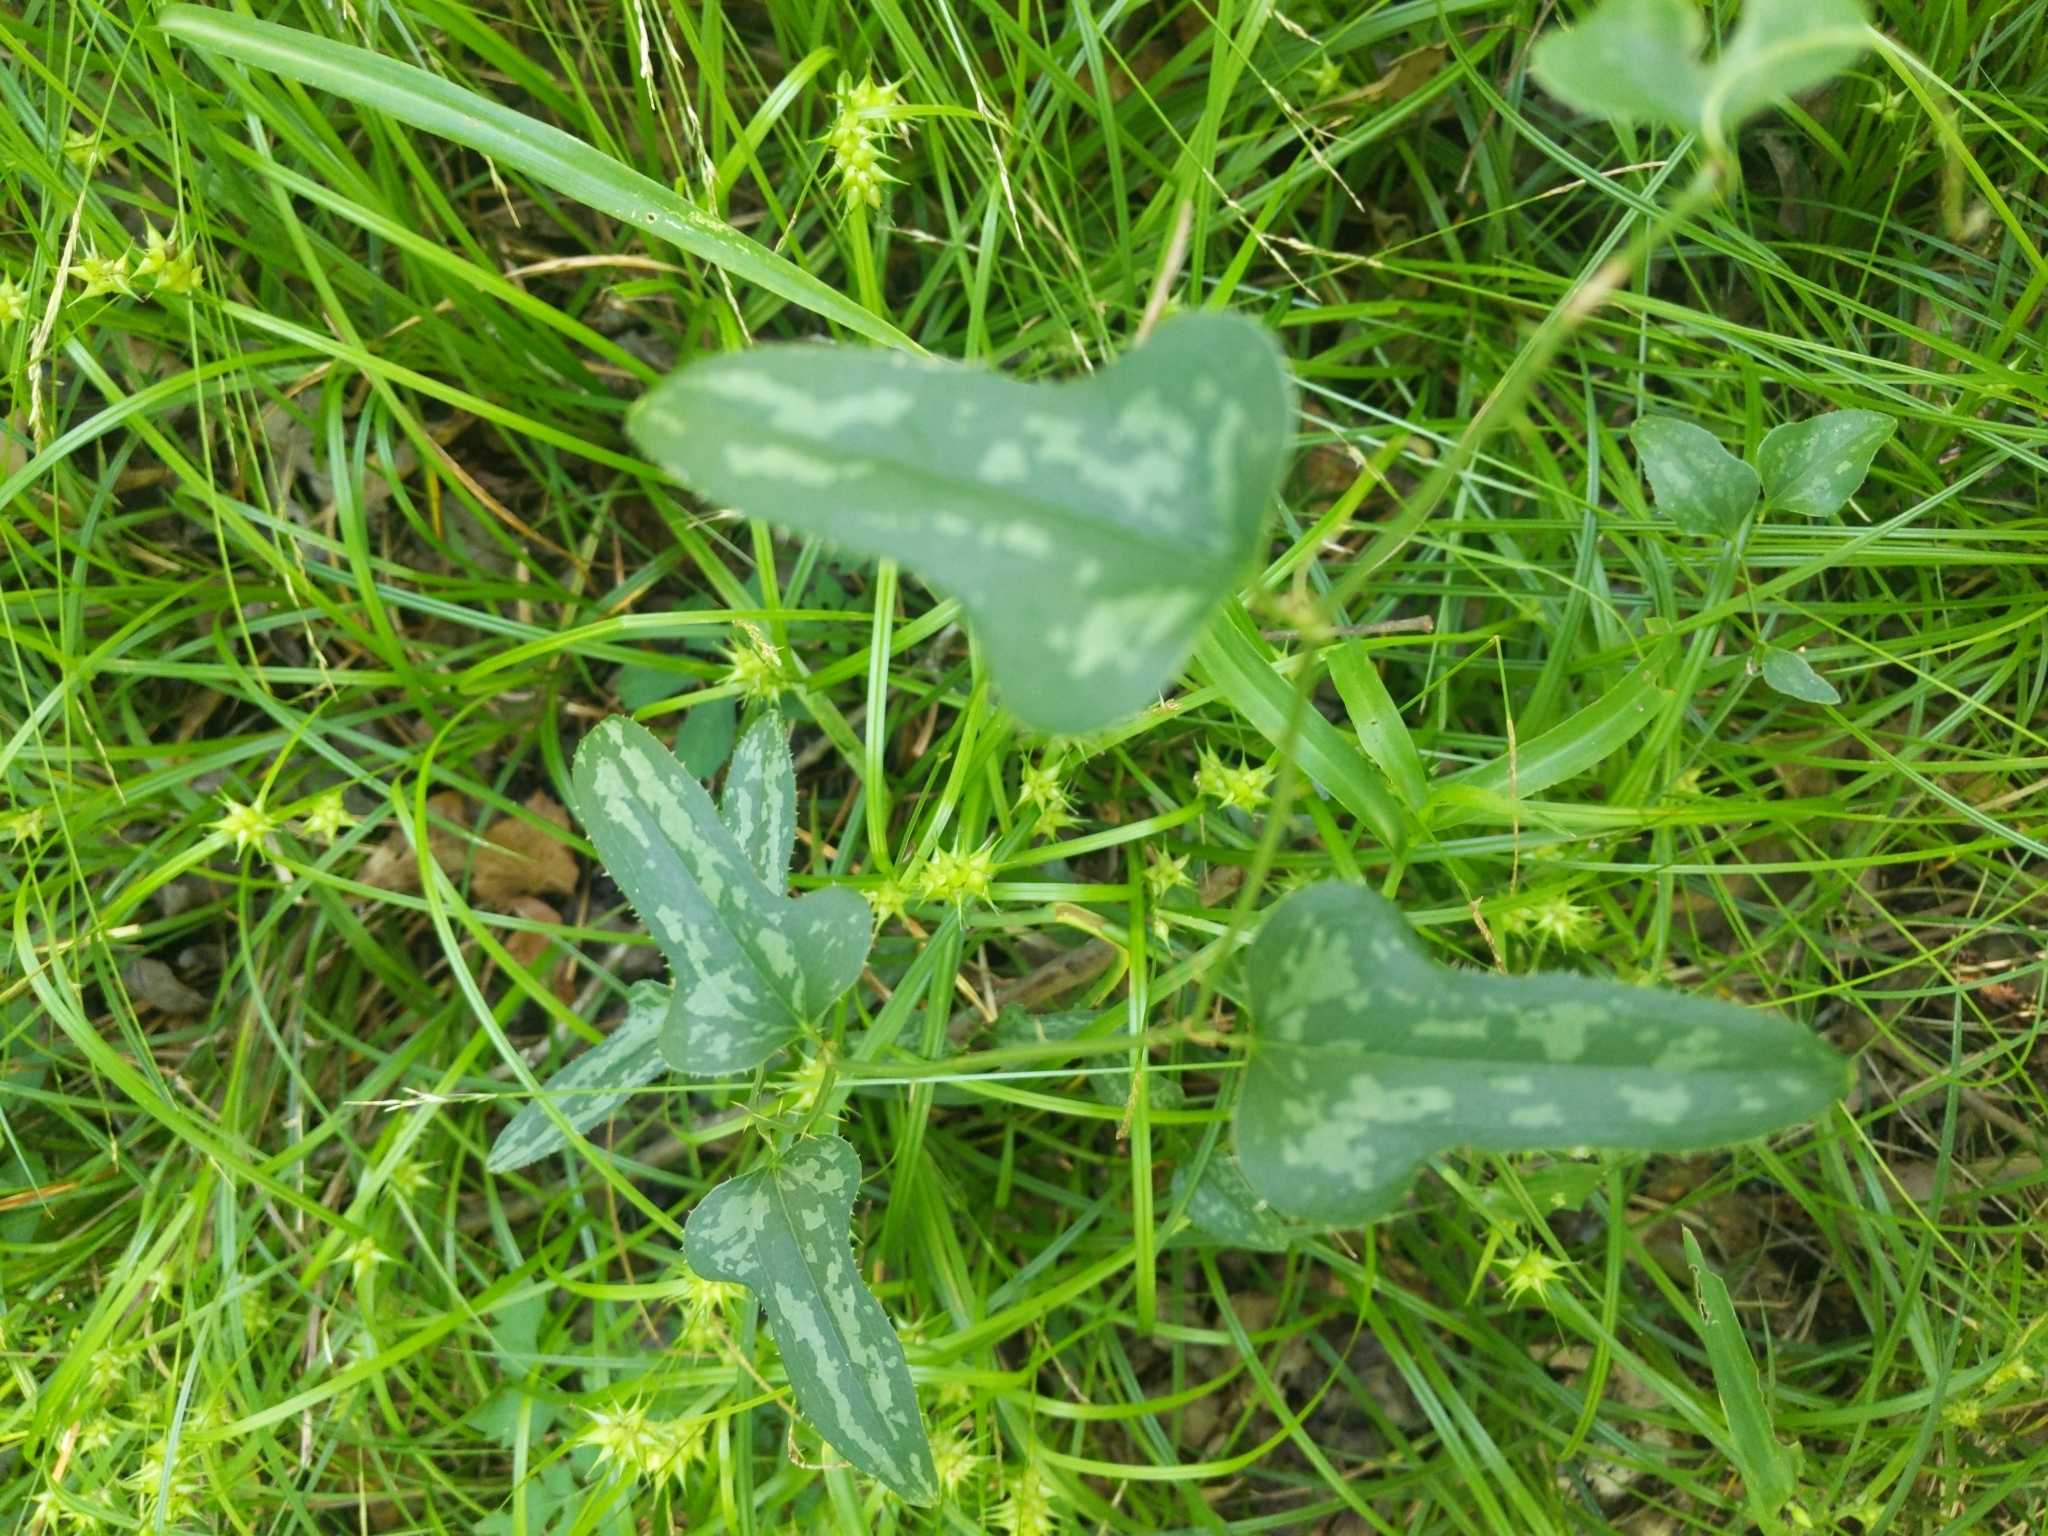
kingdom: Plantae
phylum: Tracheophyta
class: Liliopsida
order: Liliales
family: Smilacaceae
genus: Smilax
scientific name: Smilax bona-nox
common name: Catbrier
